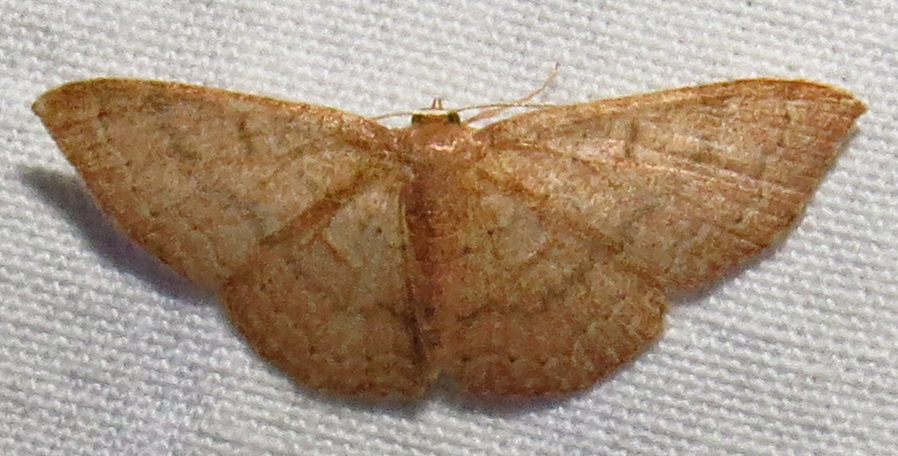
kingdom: Animalia
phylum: Arthropoda
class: Insecta
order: Lepidoptera
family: Geometridae
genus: Pleuroprucha
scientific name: Pleuroprucha insulsaria
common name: Common tan wave
